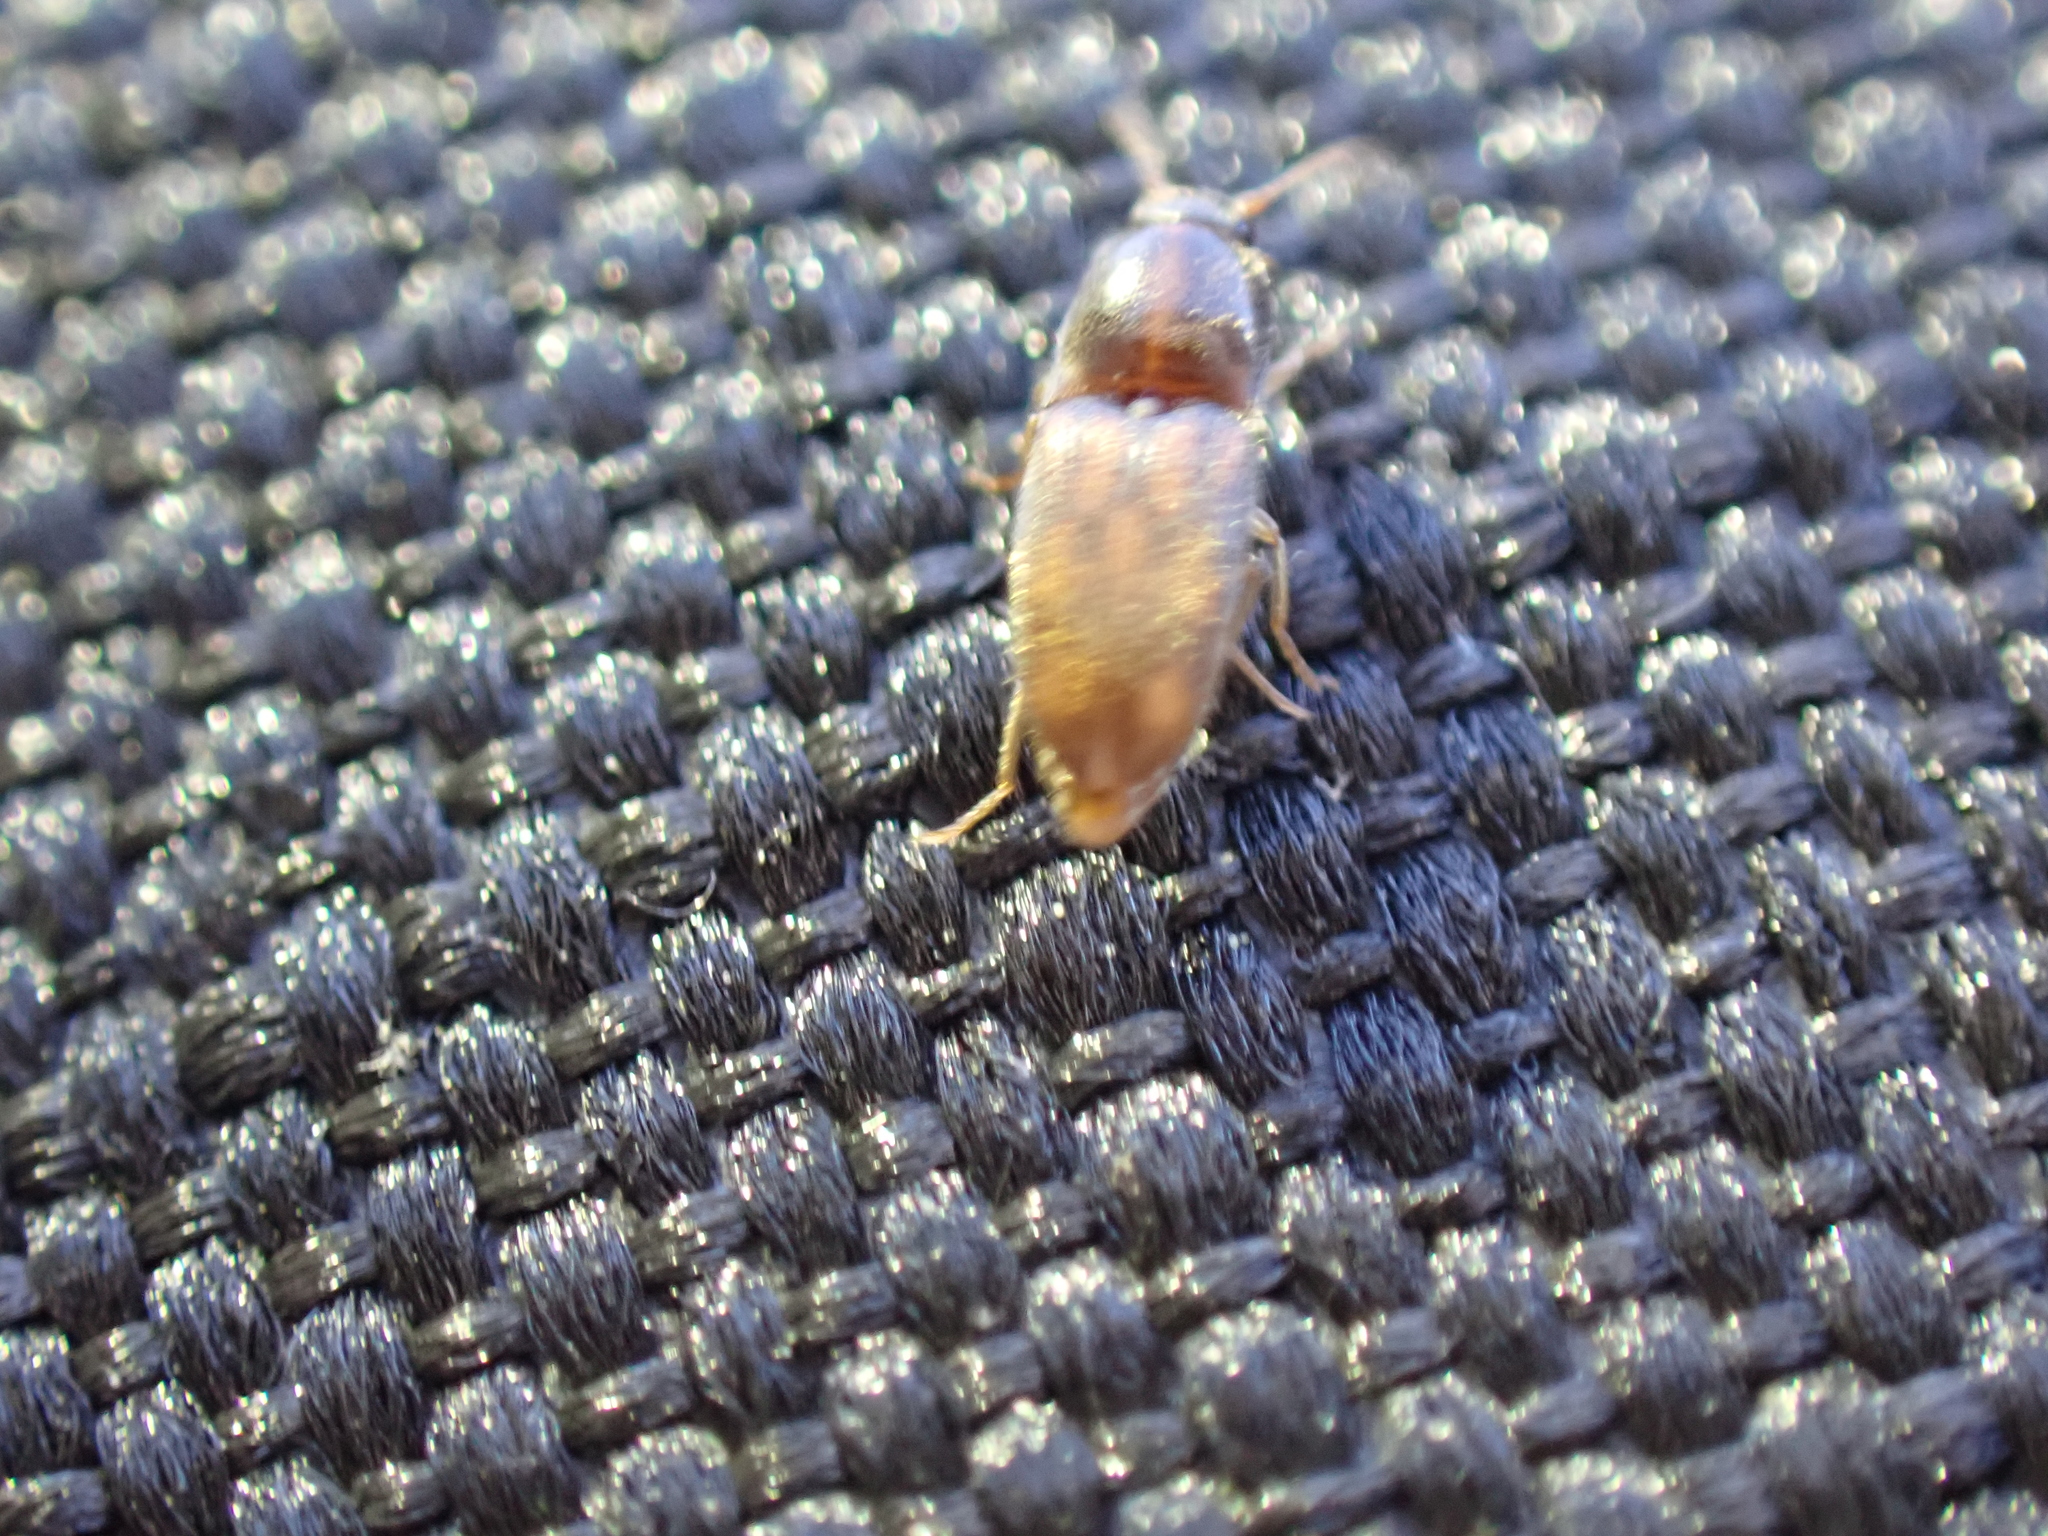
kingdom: Animalia
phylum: Arthropoda
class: Insecta
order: Coleoptera
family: Elateridae
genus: Monocrepidius
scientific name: Monocrepidius bellus
